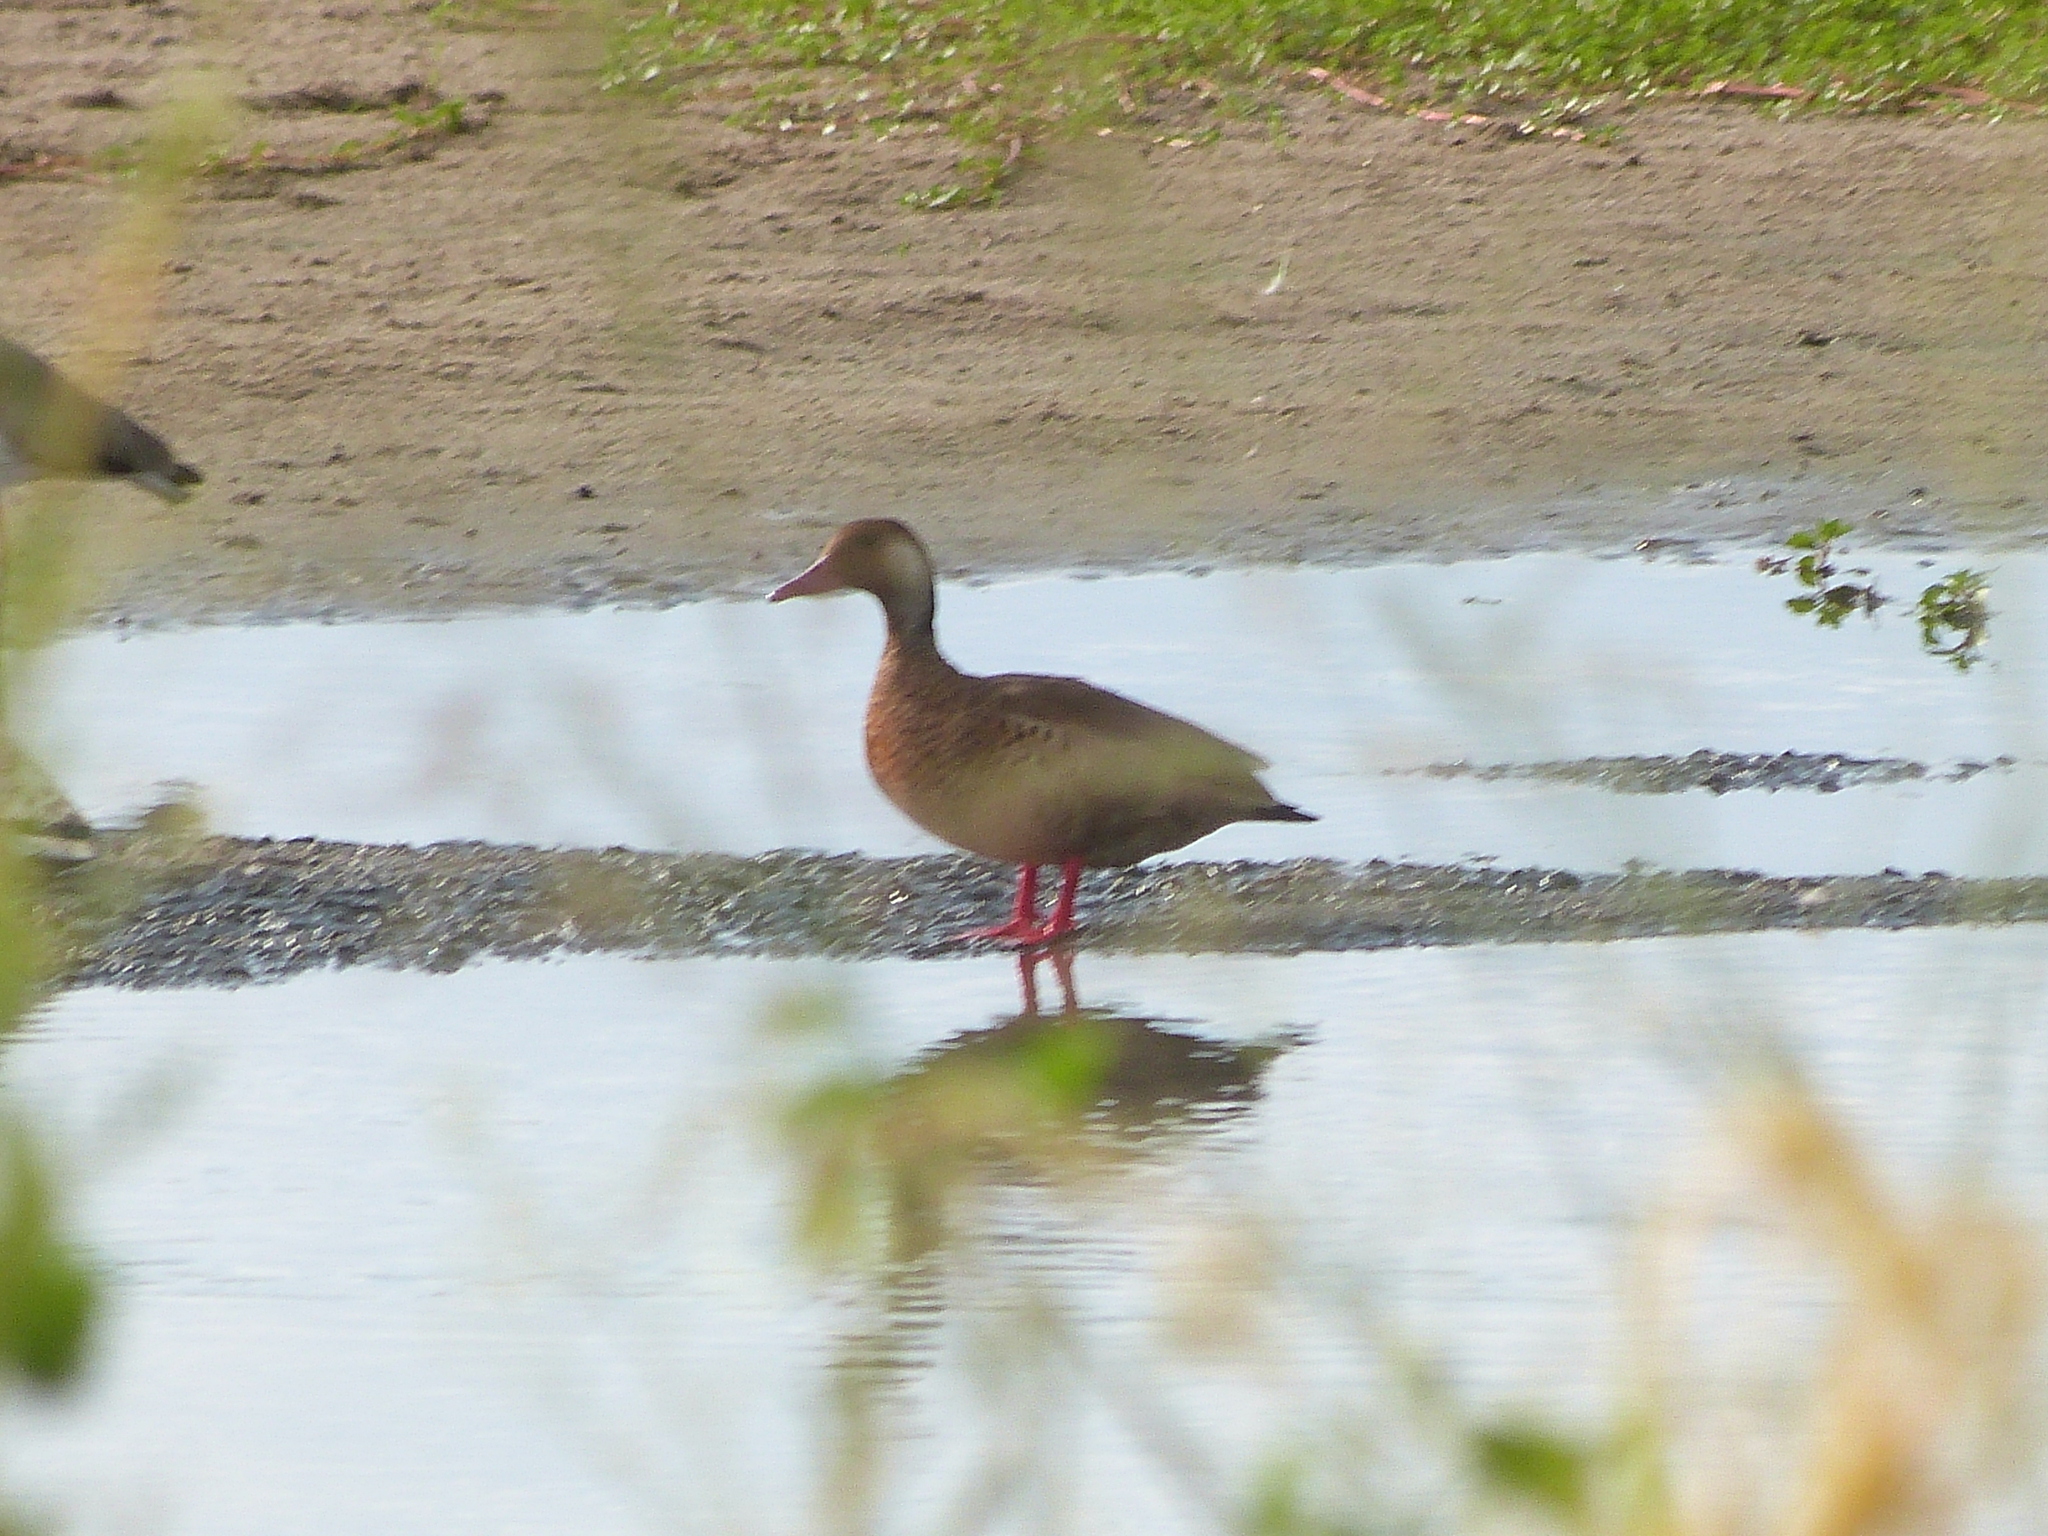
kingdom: Animalia
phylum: Chordata
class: Aves
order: Anseriformes
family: Anatidae
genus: Amazonetta
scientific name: Amazonetta brasiliensis
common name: Brazilian teal
